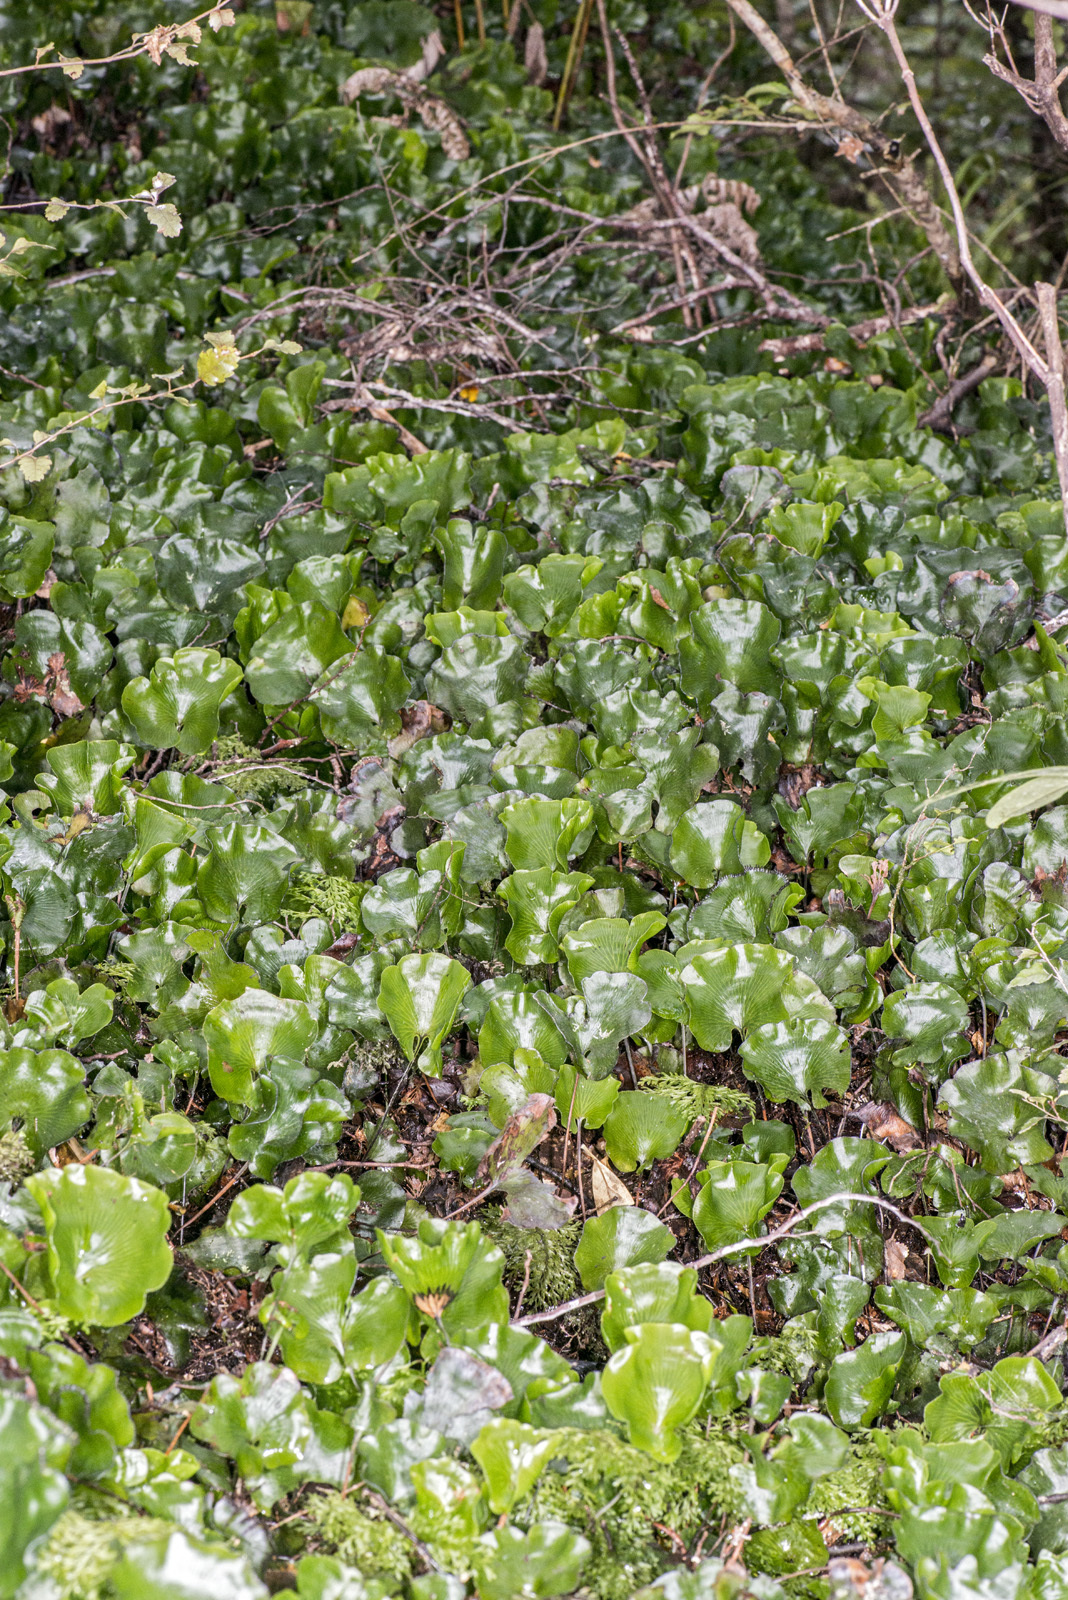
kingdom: Plantae
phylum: Tracheophyta
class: Polypodiopsida
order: Hymenophyllales
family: Hymenophyllaceae
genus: Hymenophyllum
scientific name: Hymenophyllum nephrophyllum
